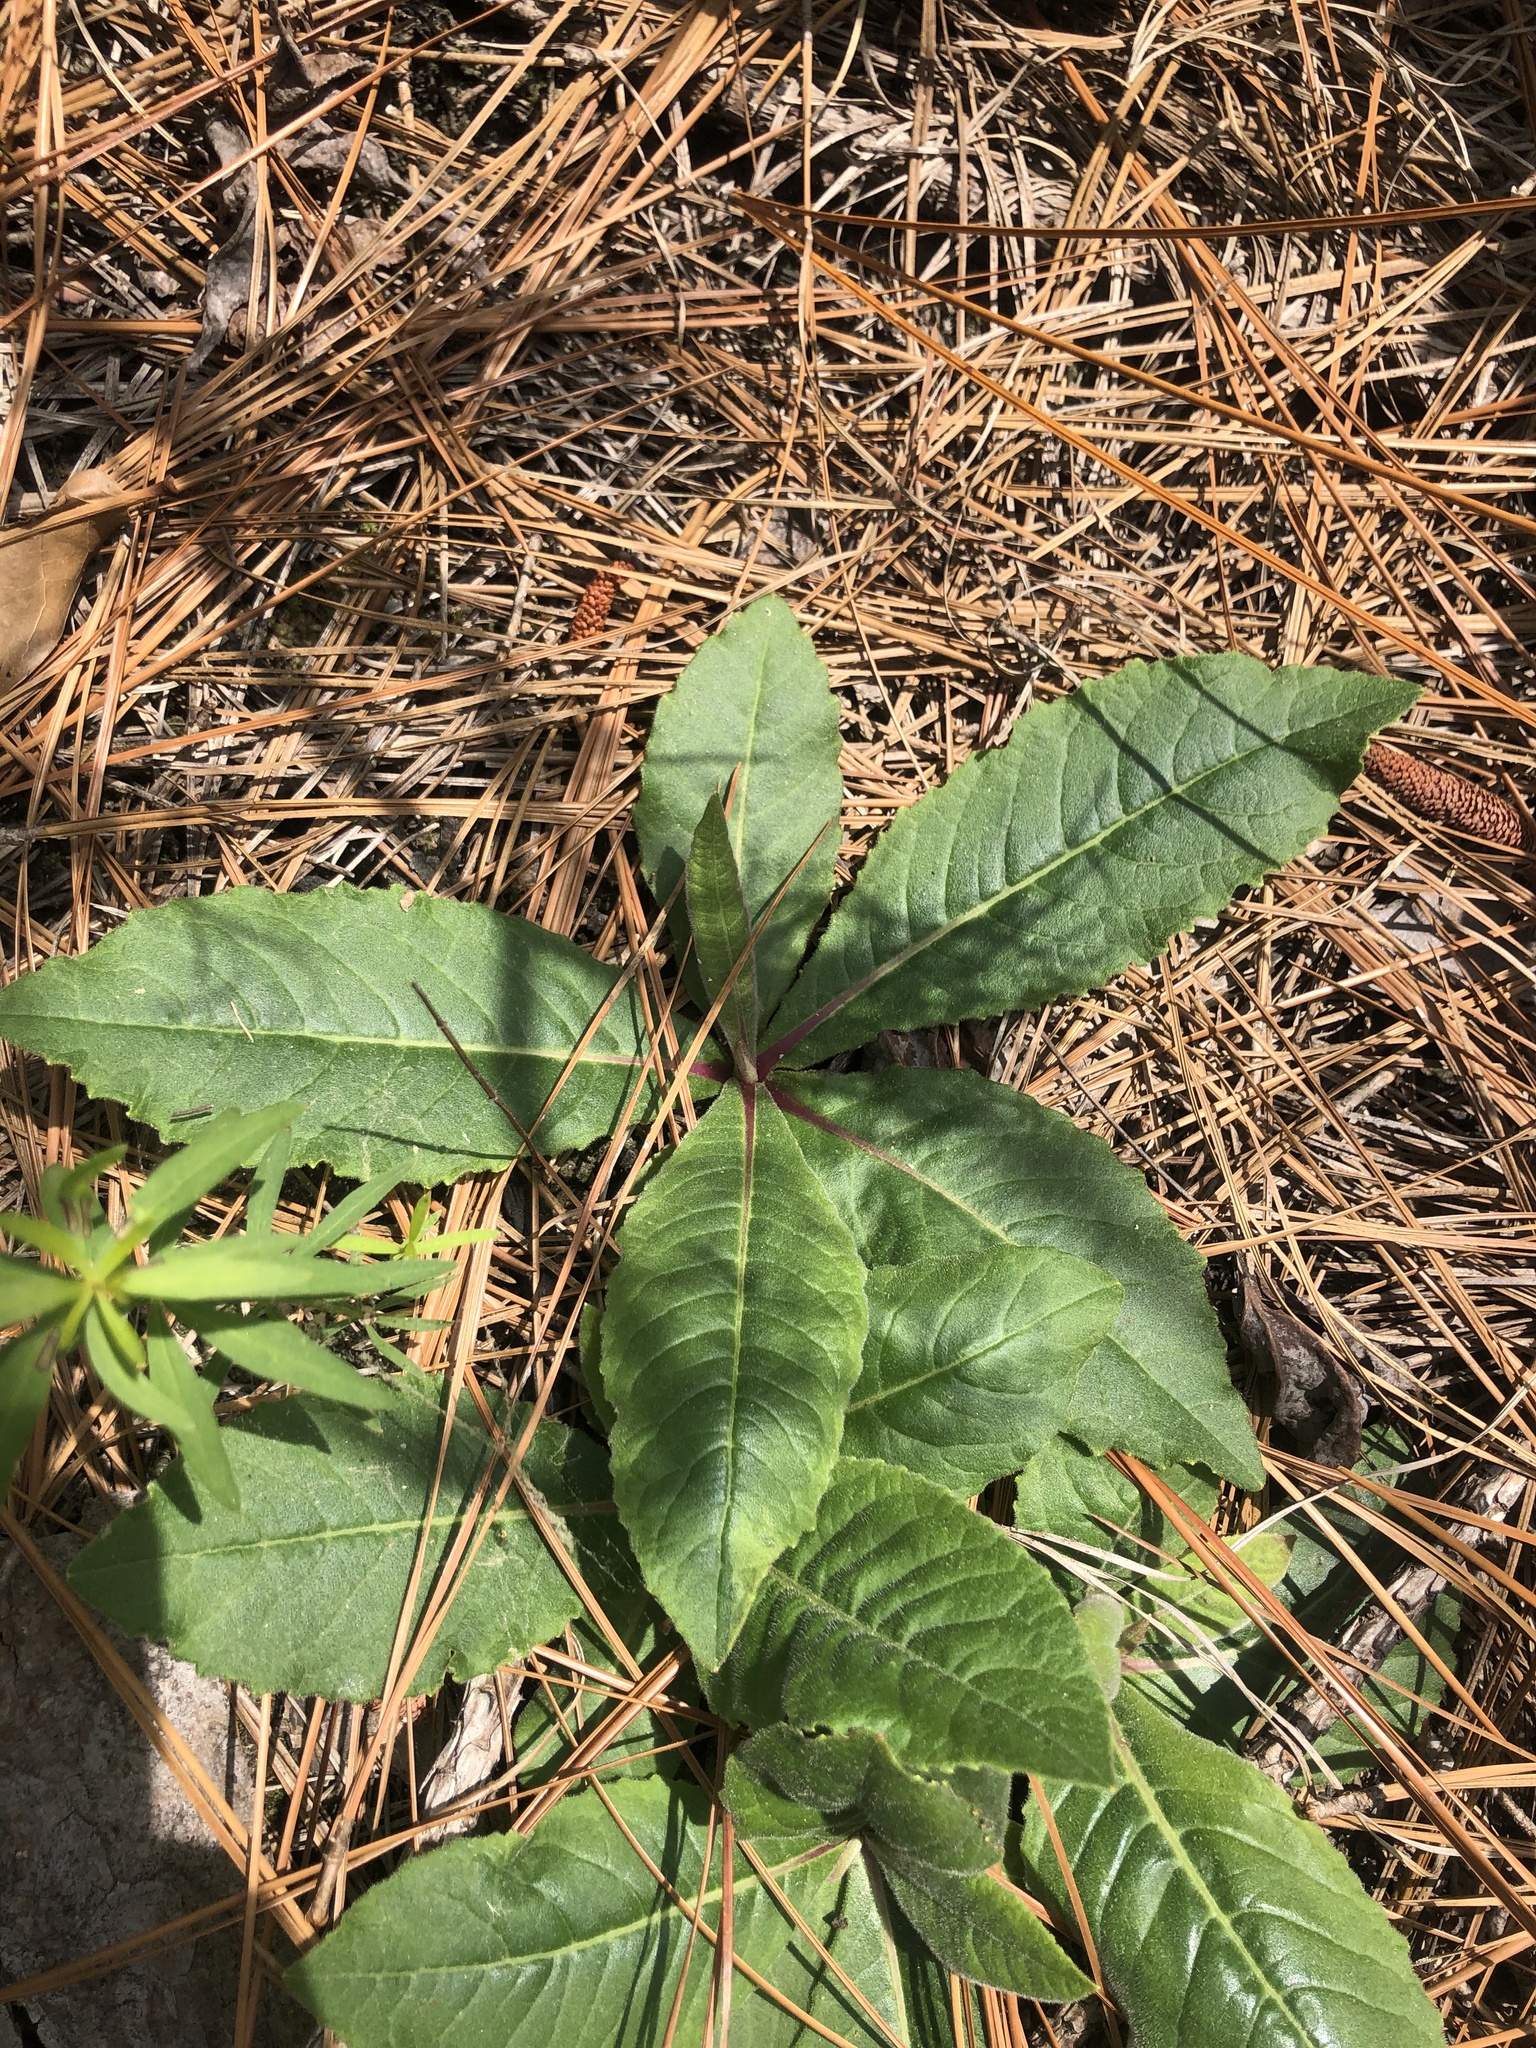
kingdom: Plantae
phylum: Tracheophyta
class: Magnoliopsida
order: Asterales
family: Asteraceae
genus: Vernonia
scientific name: Vernonia acaulis
